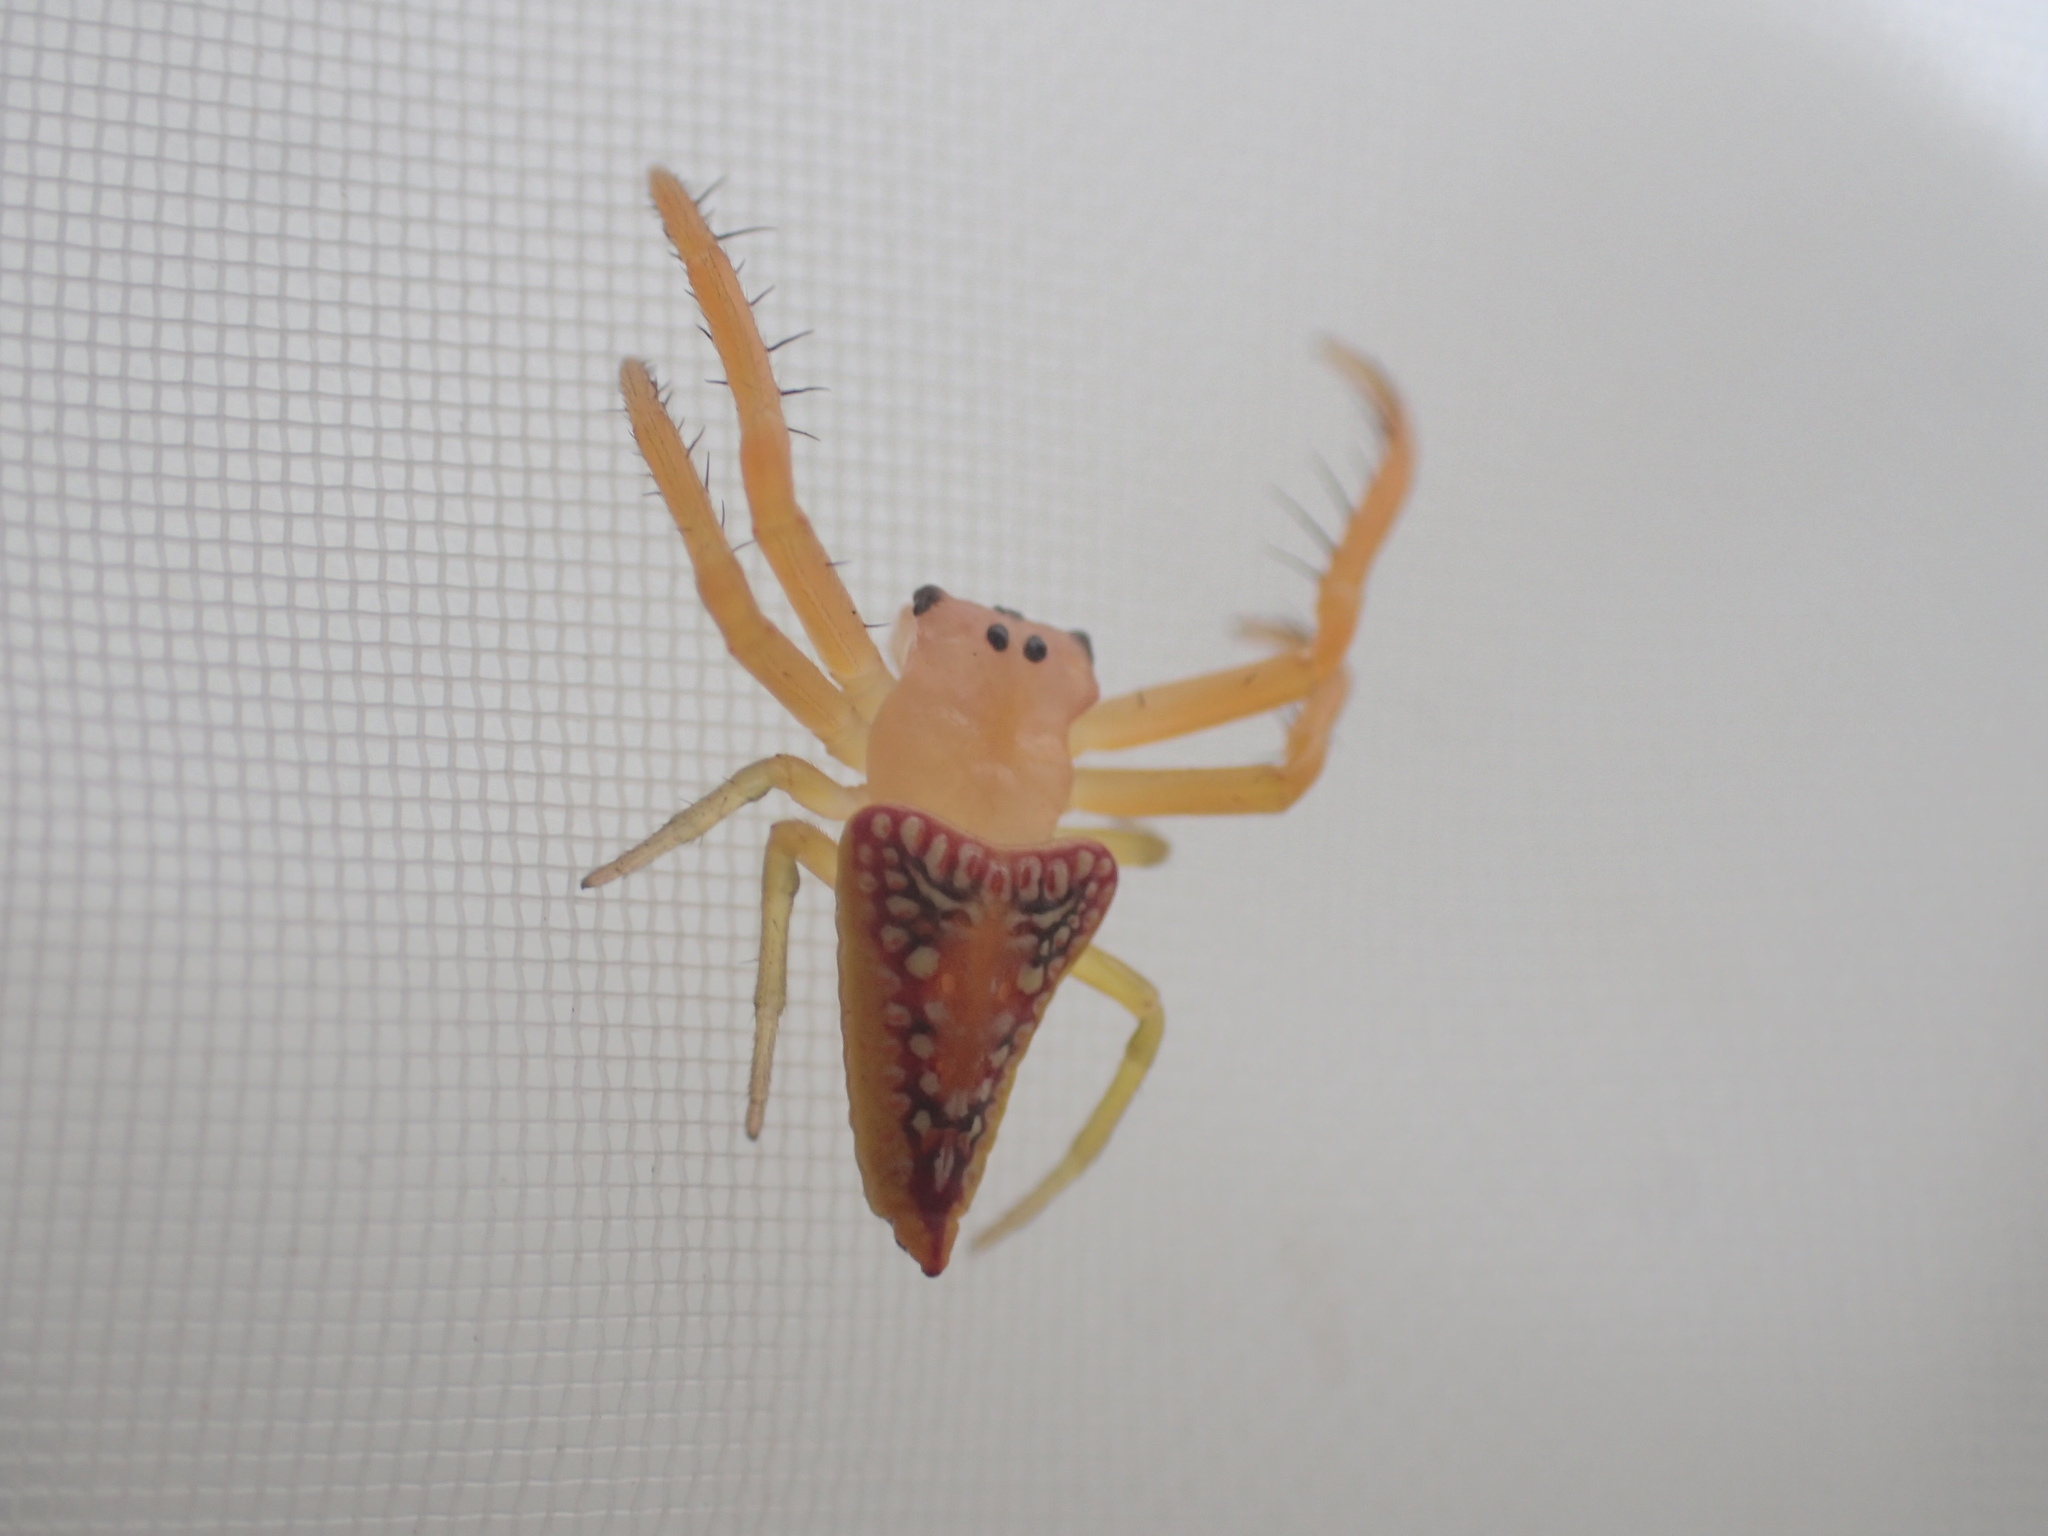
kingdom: Animalia
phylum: Arthropoda
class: Arachnida
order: Araneae
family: Arkyidae
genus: Arkys
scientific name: Arkys walckenaeri
